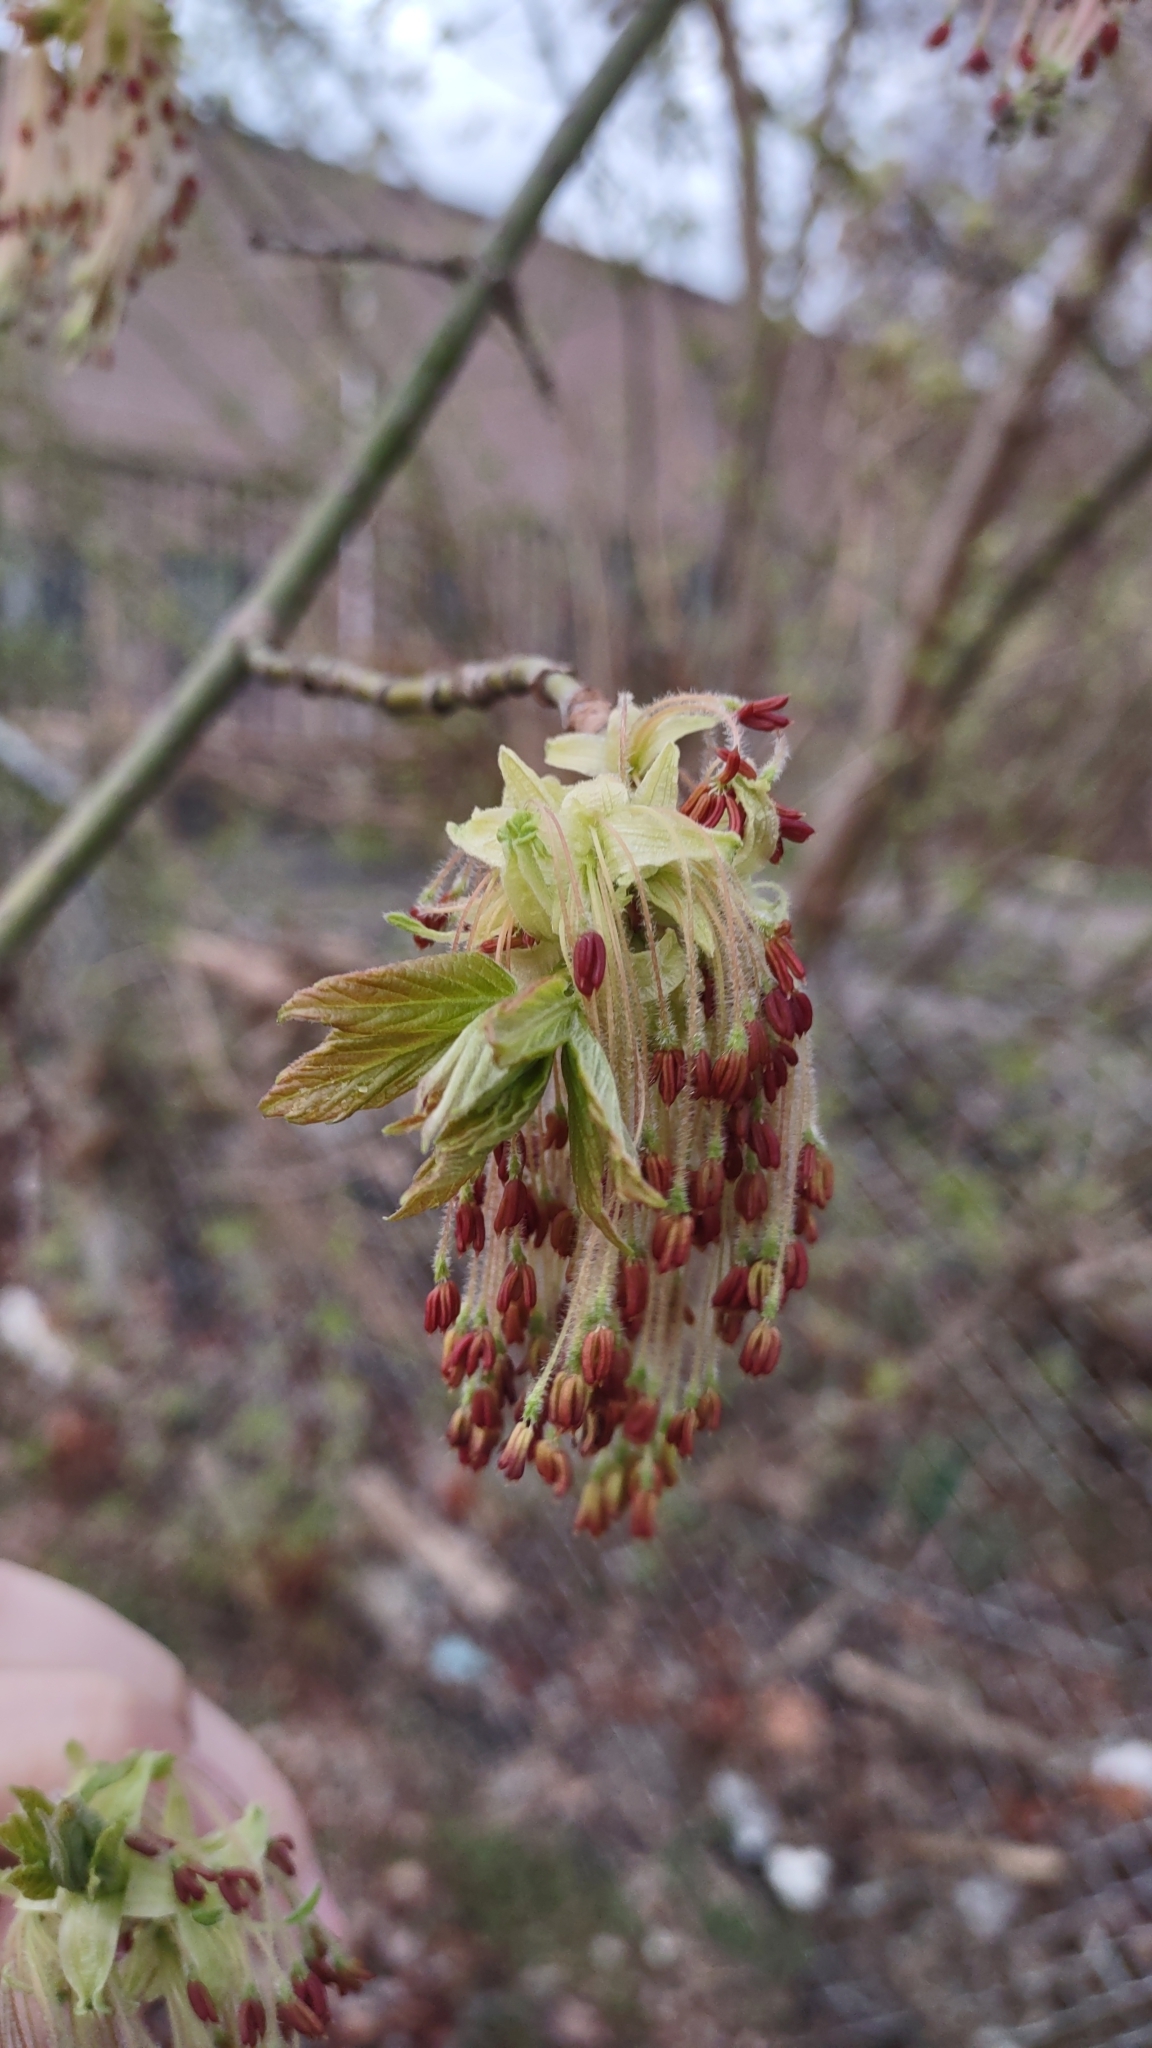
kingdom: Plantae
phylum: Tracheophyta
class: Magnoliopsida
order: Sapindales
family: Sapindaceae
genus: Acer
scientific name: Acer negundo
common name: Ashleaf maple
